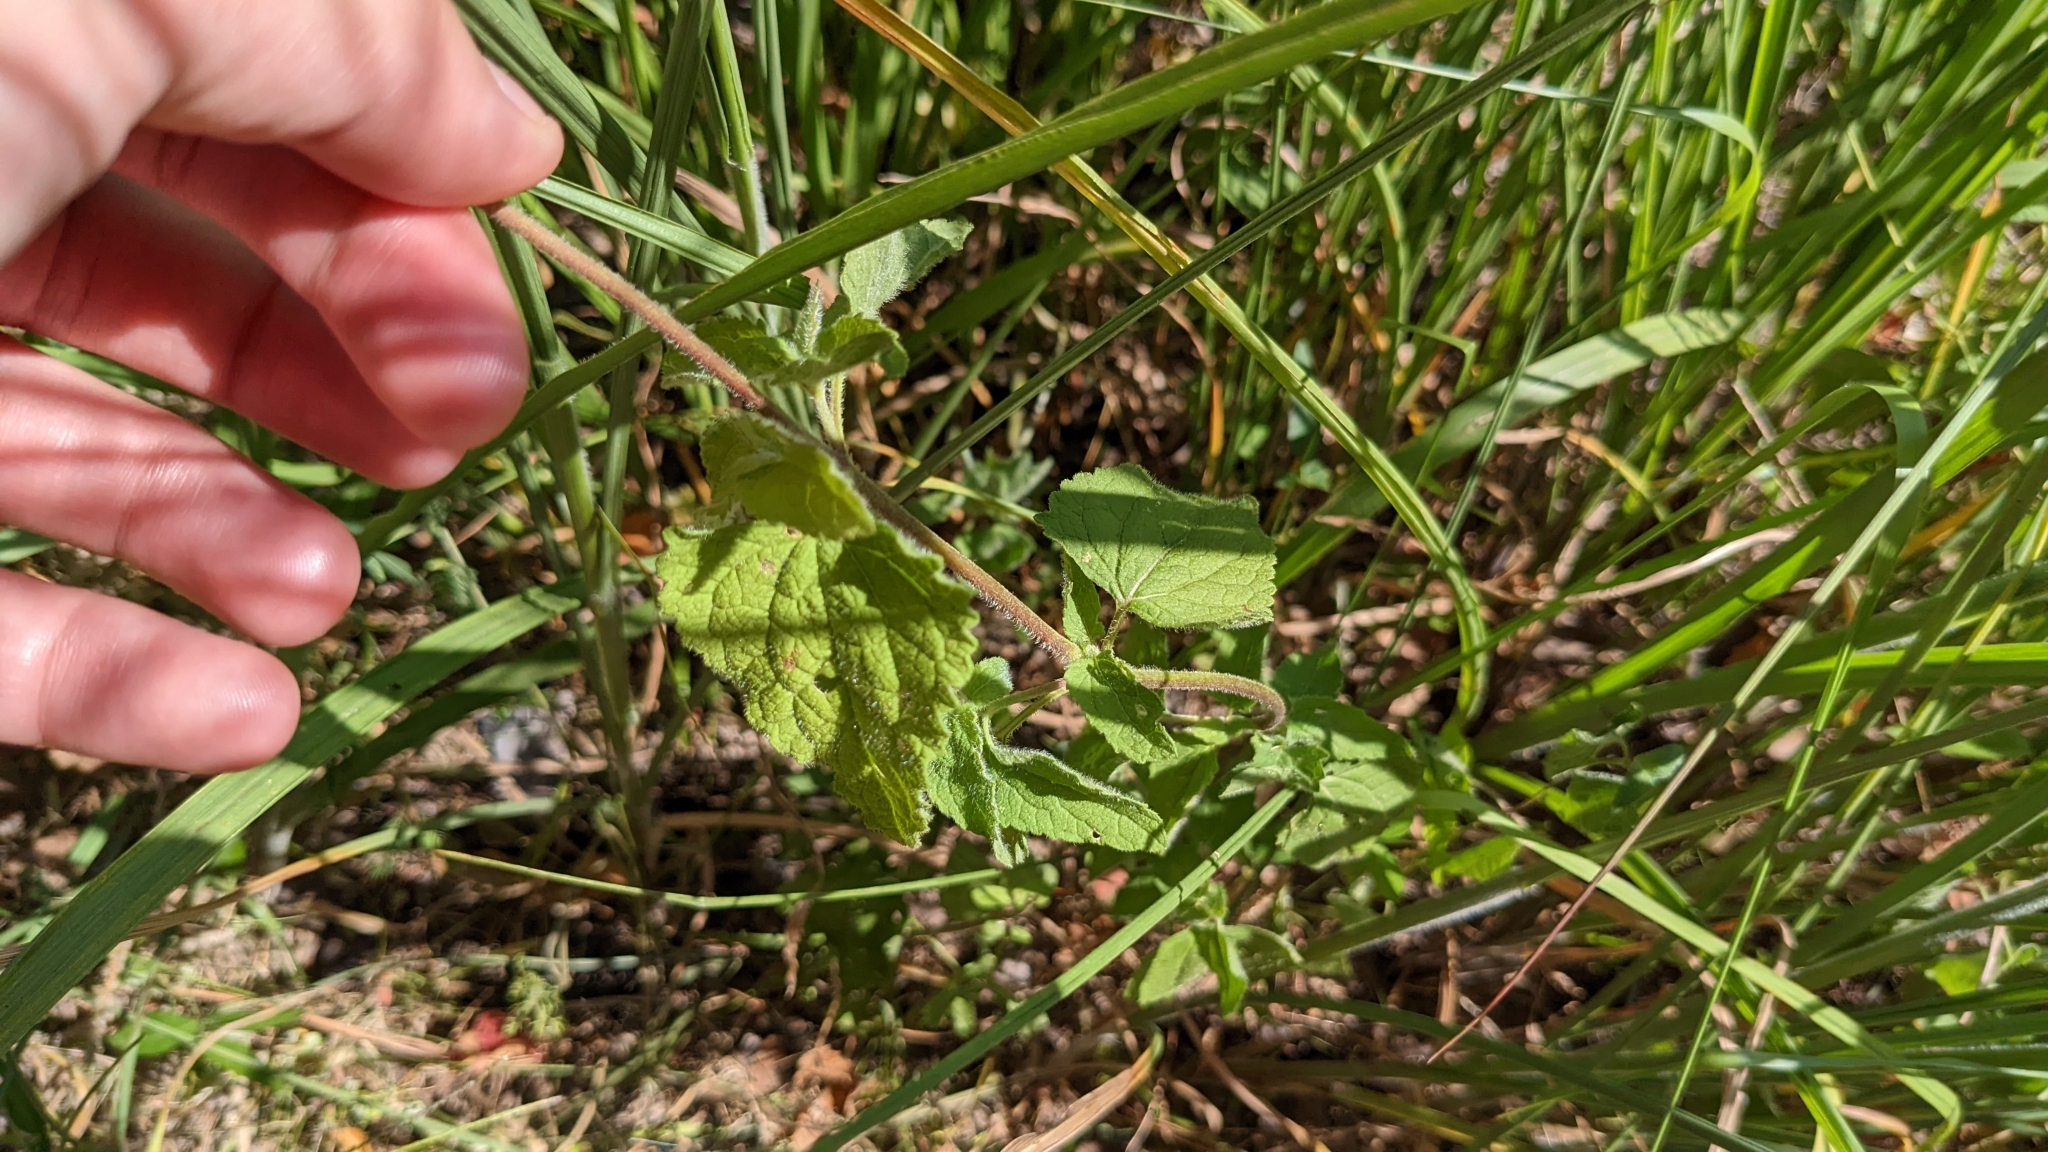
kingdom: Plantae
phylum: Tracheophyta
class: Magnoliopsida
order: Asterales
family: Asteraceae
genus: Conoclinium
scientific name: Conoclinium coelestinum
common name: Blue mistflower
